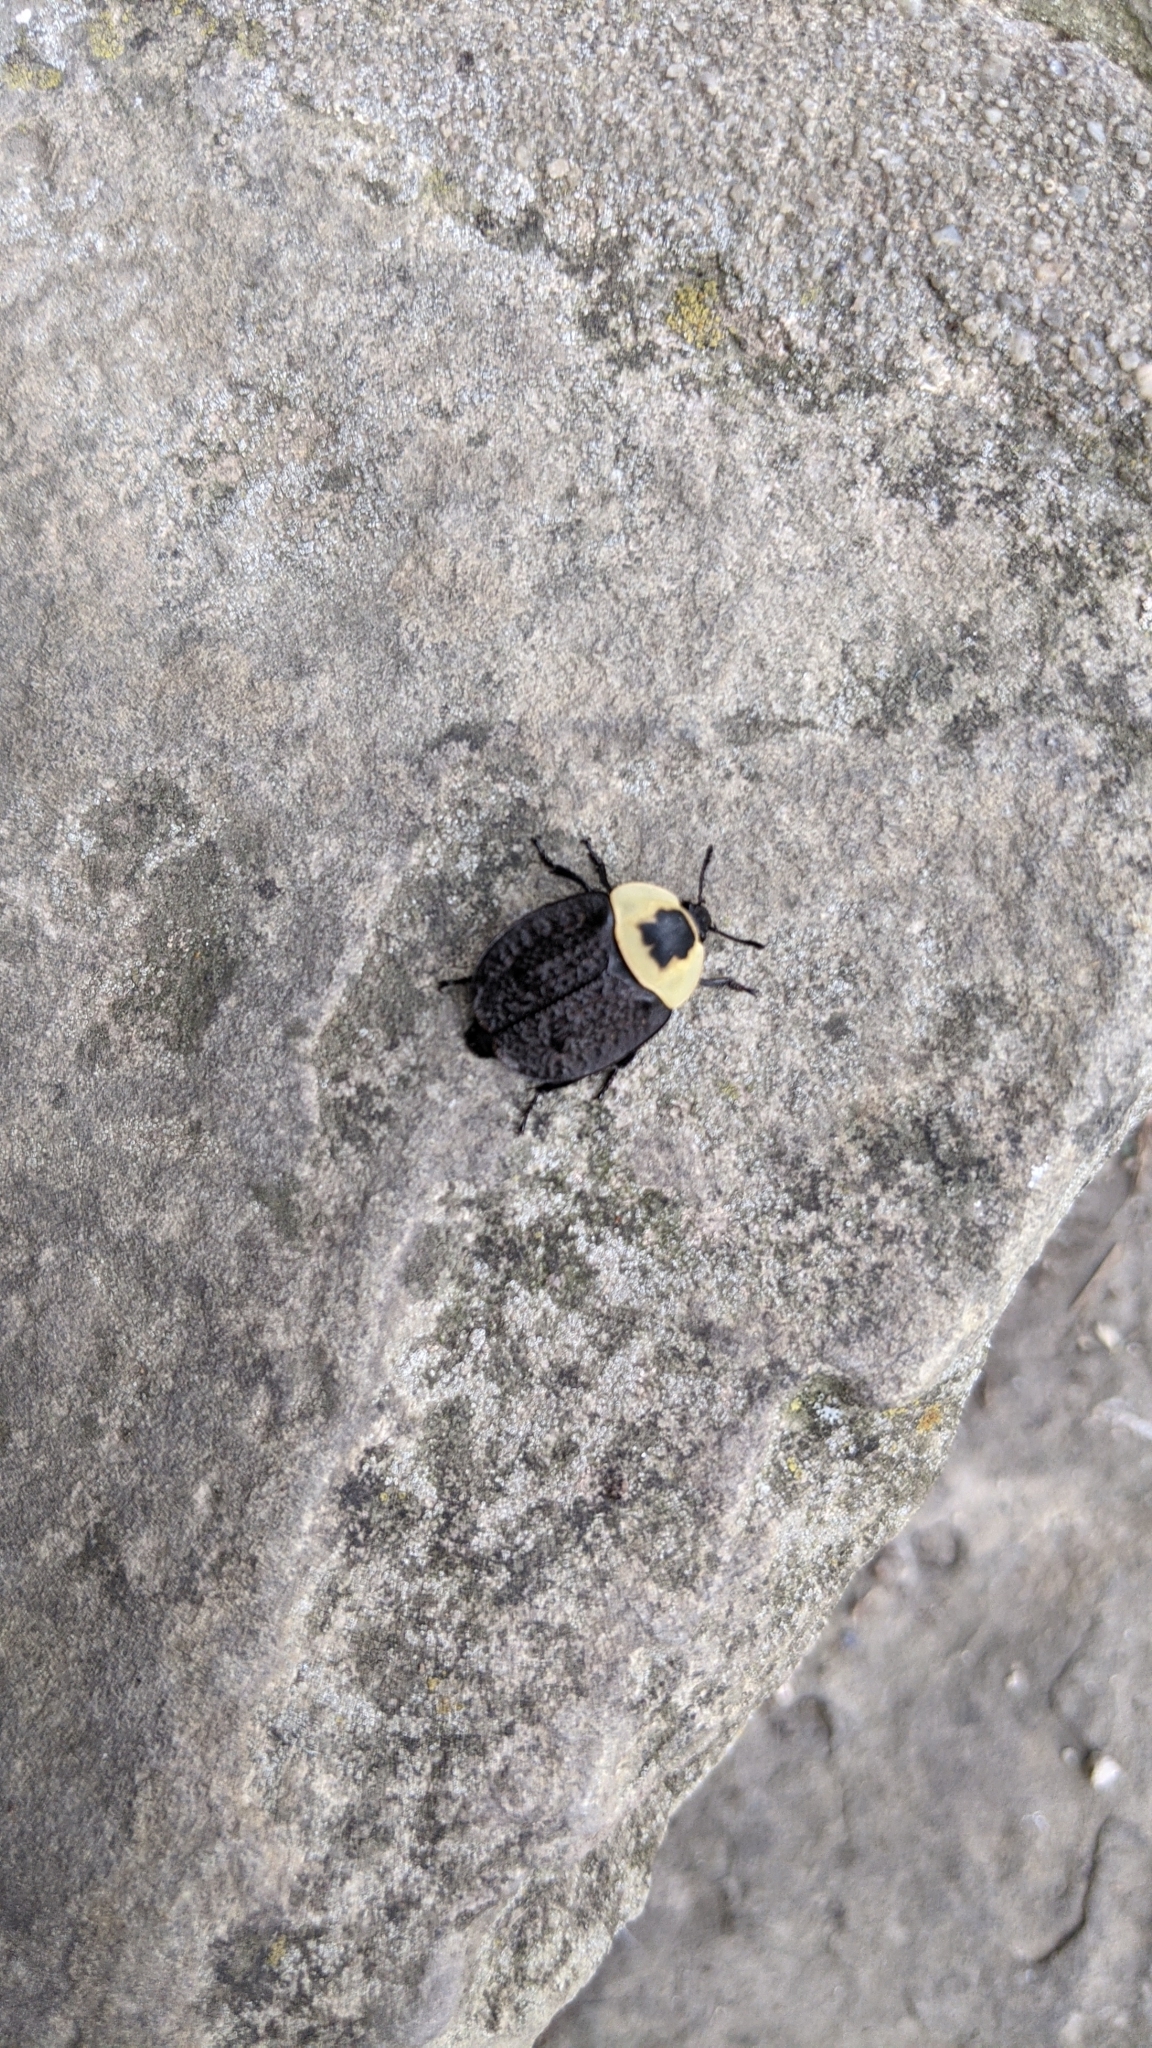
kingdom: Animalia
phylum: Arthropoda
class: Insecta
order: Coleoptera
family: Staphylinidae
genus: Necrophila
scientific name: Necrophila americana
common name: American carrion beetle
